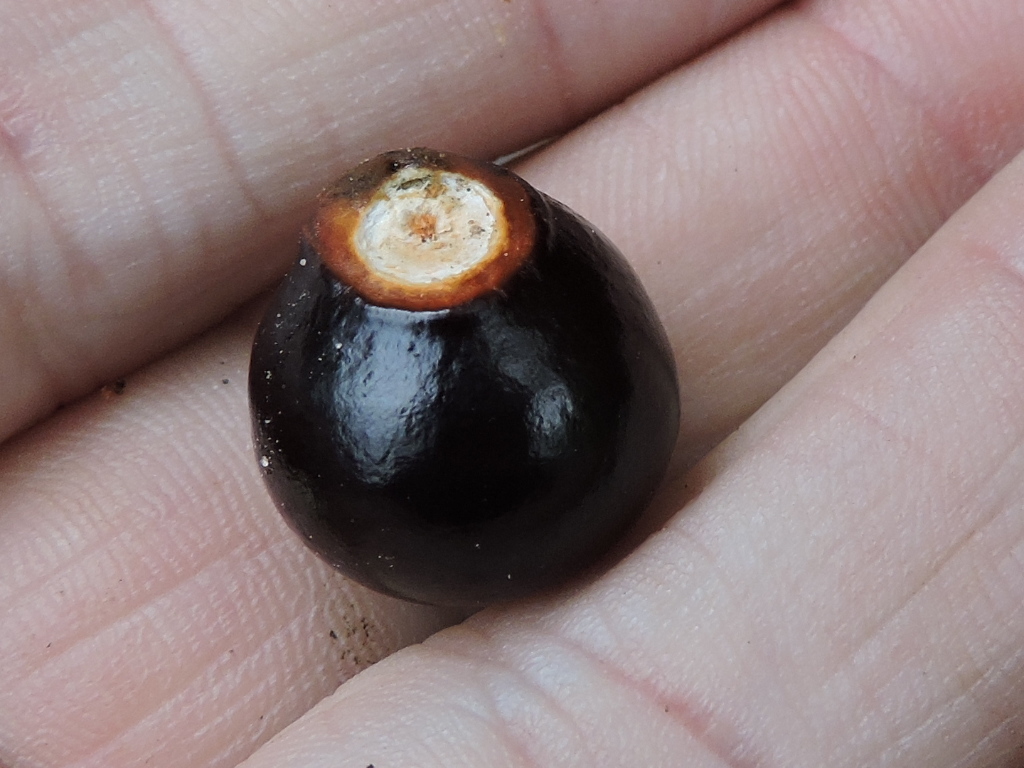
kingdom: Plantae
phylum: Tracheophyta
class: Magnoliopsida
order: Sapindales
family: Sapindaceae
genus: Ungnadia
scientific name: Ungnadia speciosa
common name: Texas-buckeye
